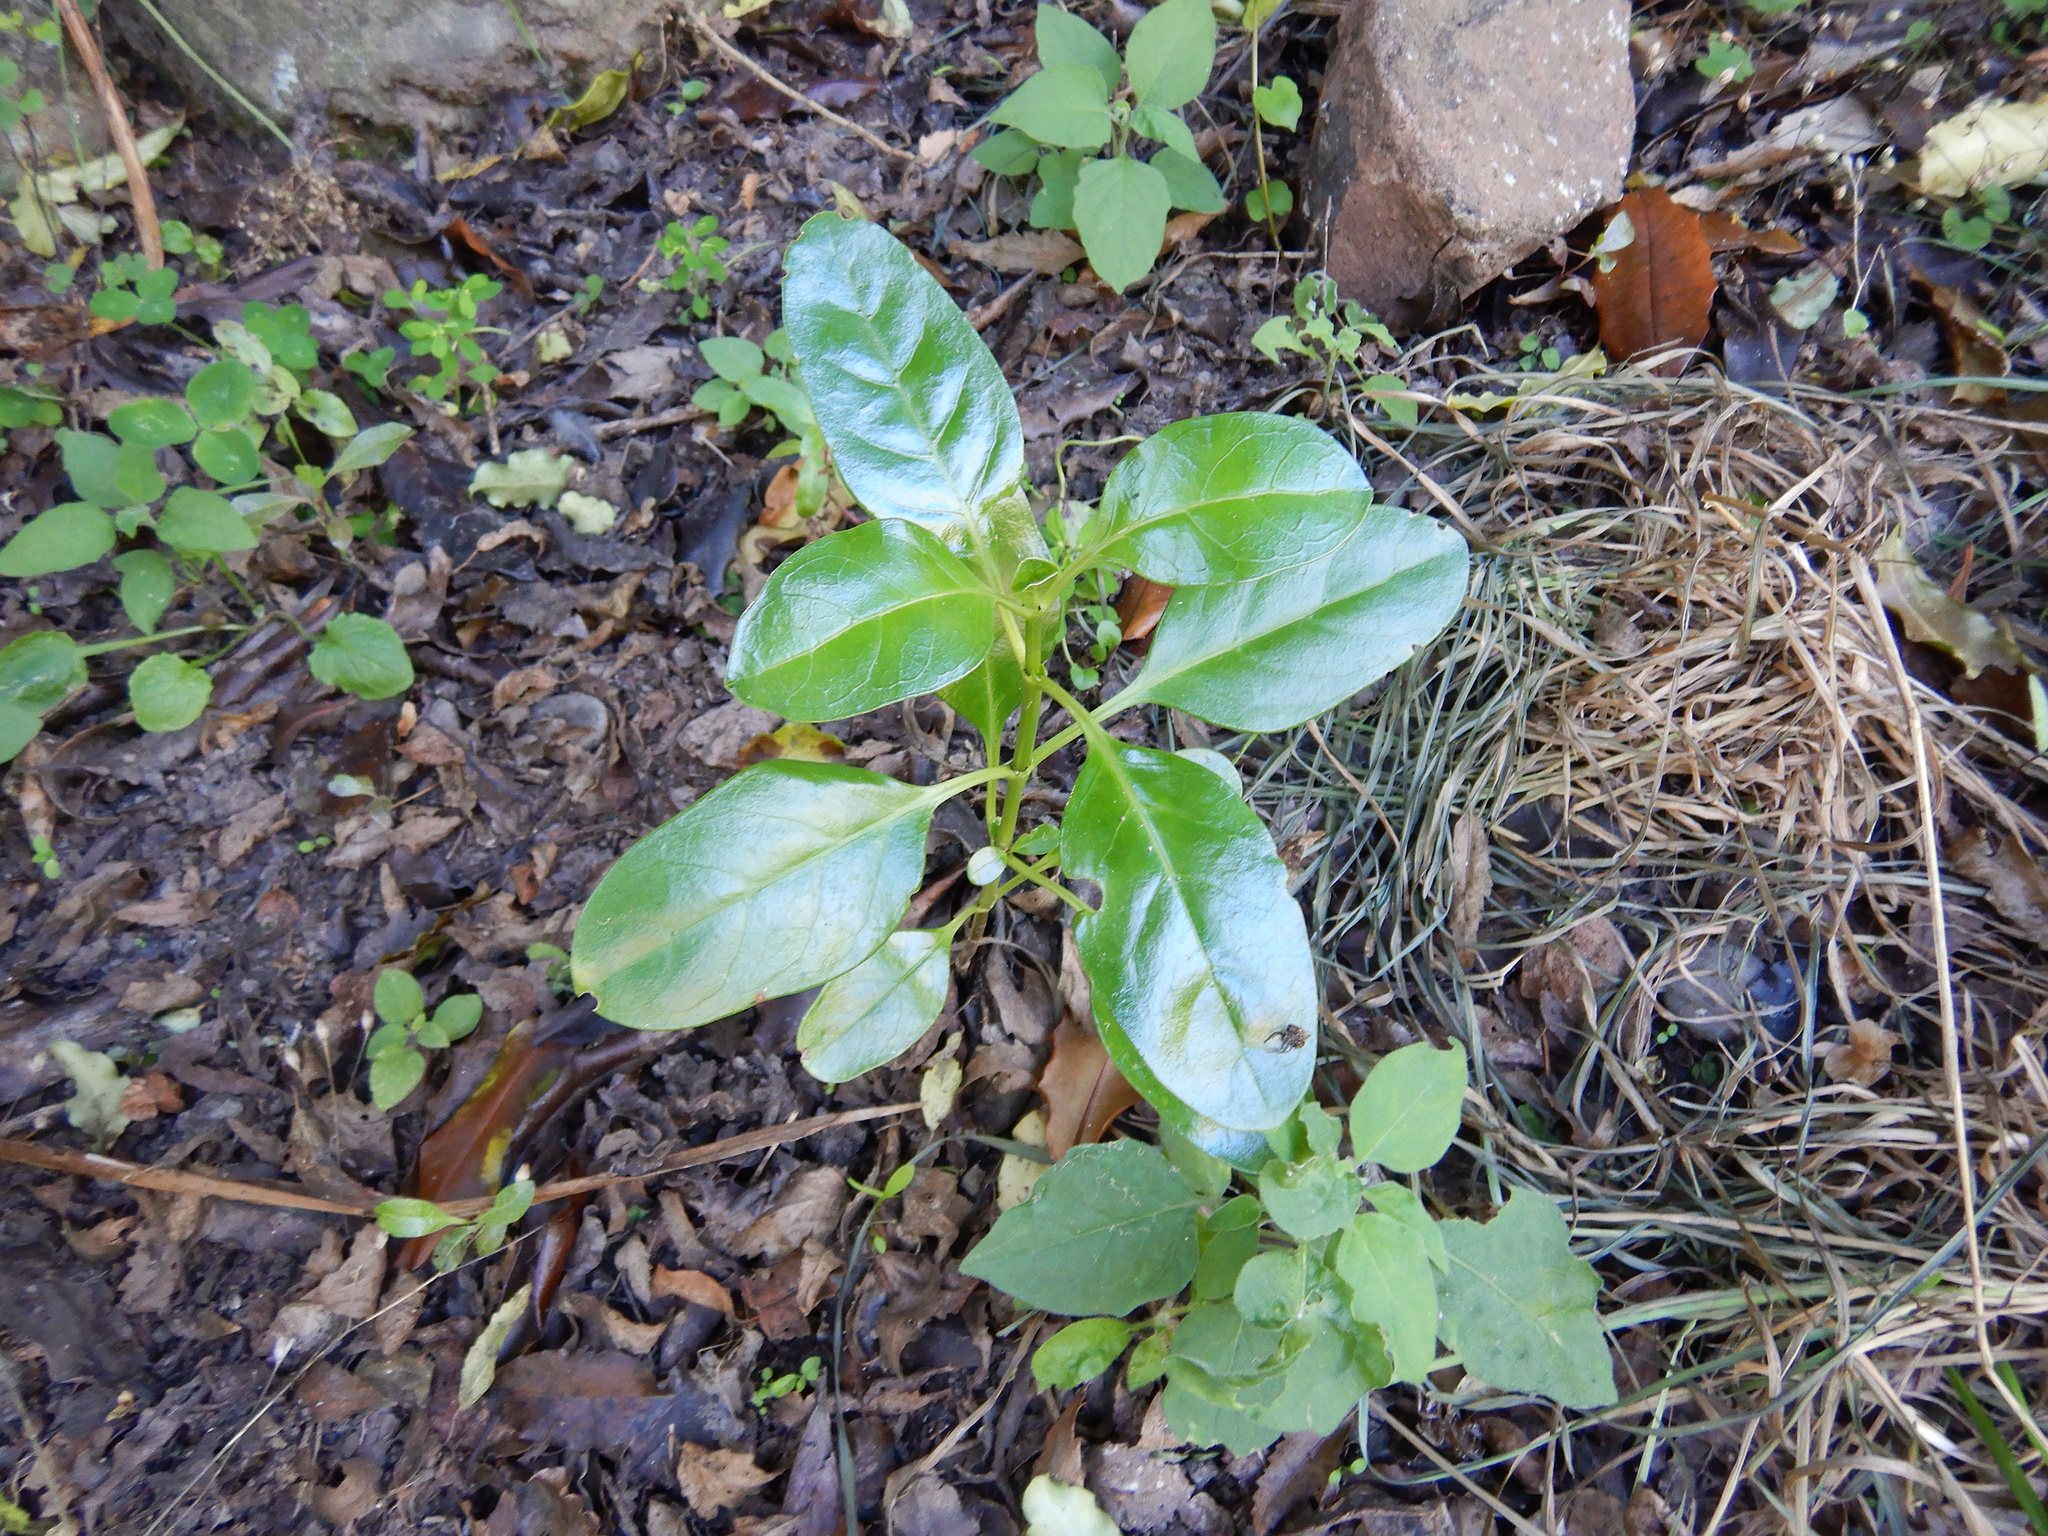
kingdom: Plantae
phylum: Tracheophyta
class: Magnoliopsida
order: Gentianales
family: Rubiaceae
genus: Coprosma
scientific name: Coprosma repens
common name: Tree bedstraw
